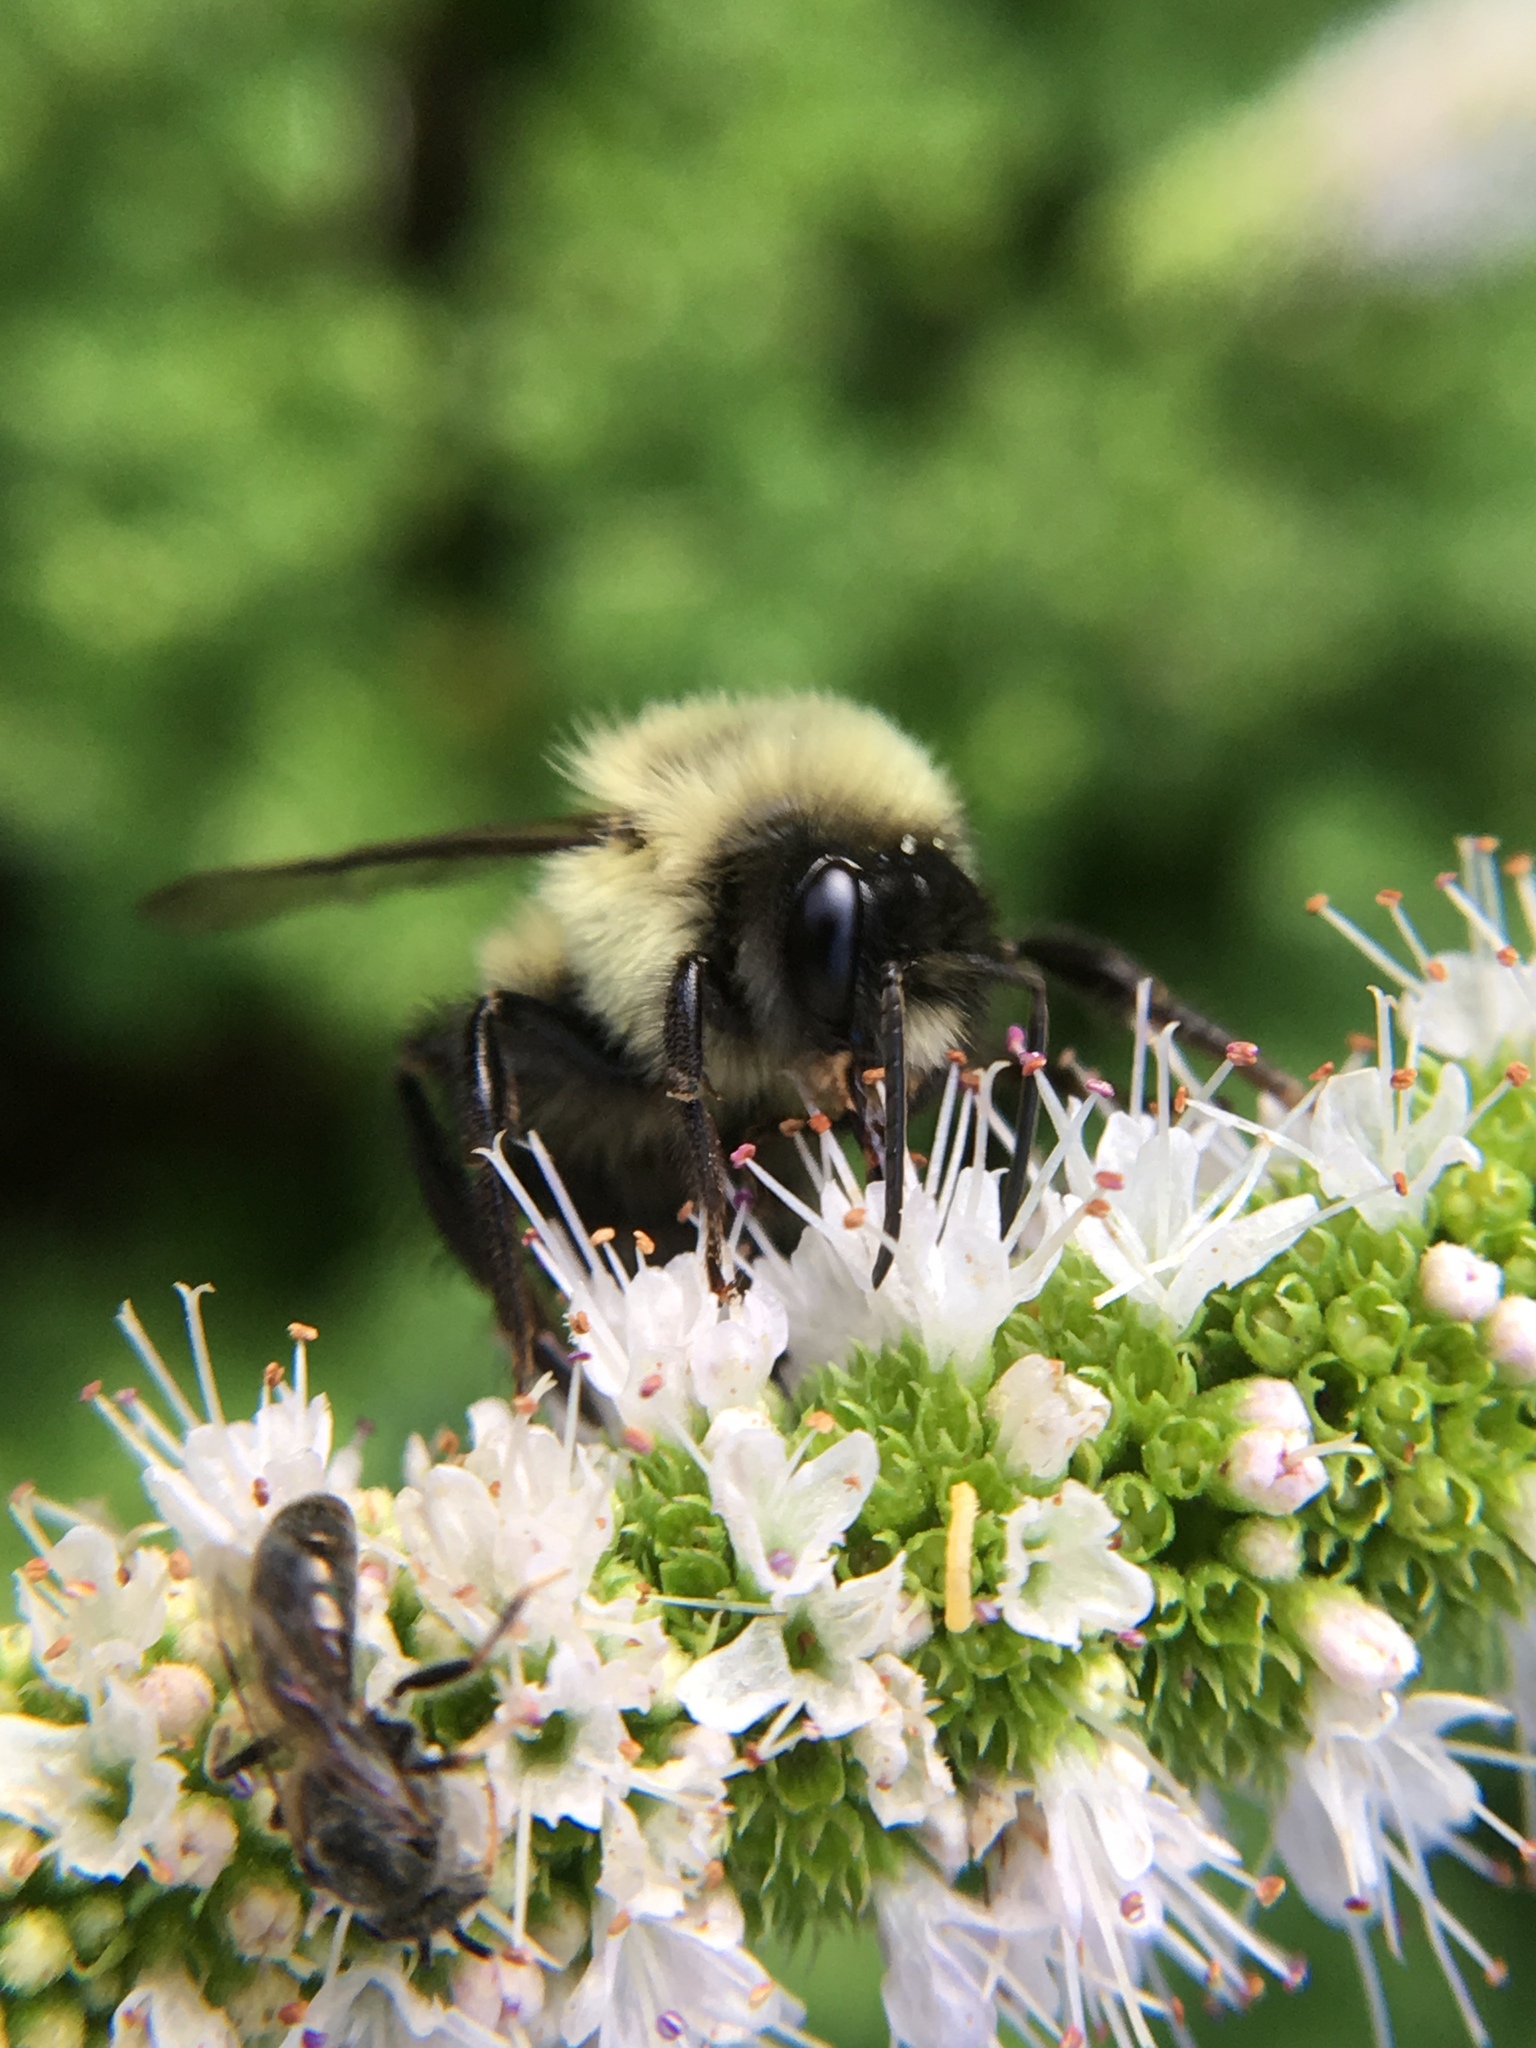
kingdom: Animalia
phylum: Arthropoda
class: Insecta
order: Hymenoptera
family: Apidae
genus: Bombus
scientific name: Bombus impatiens
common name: Common eastern bumble bee
